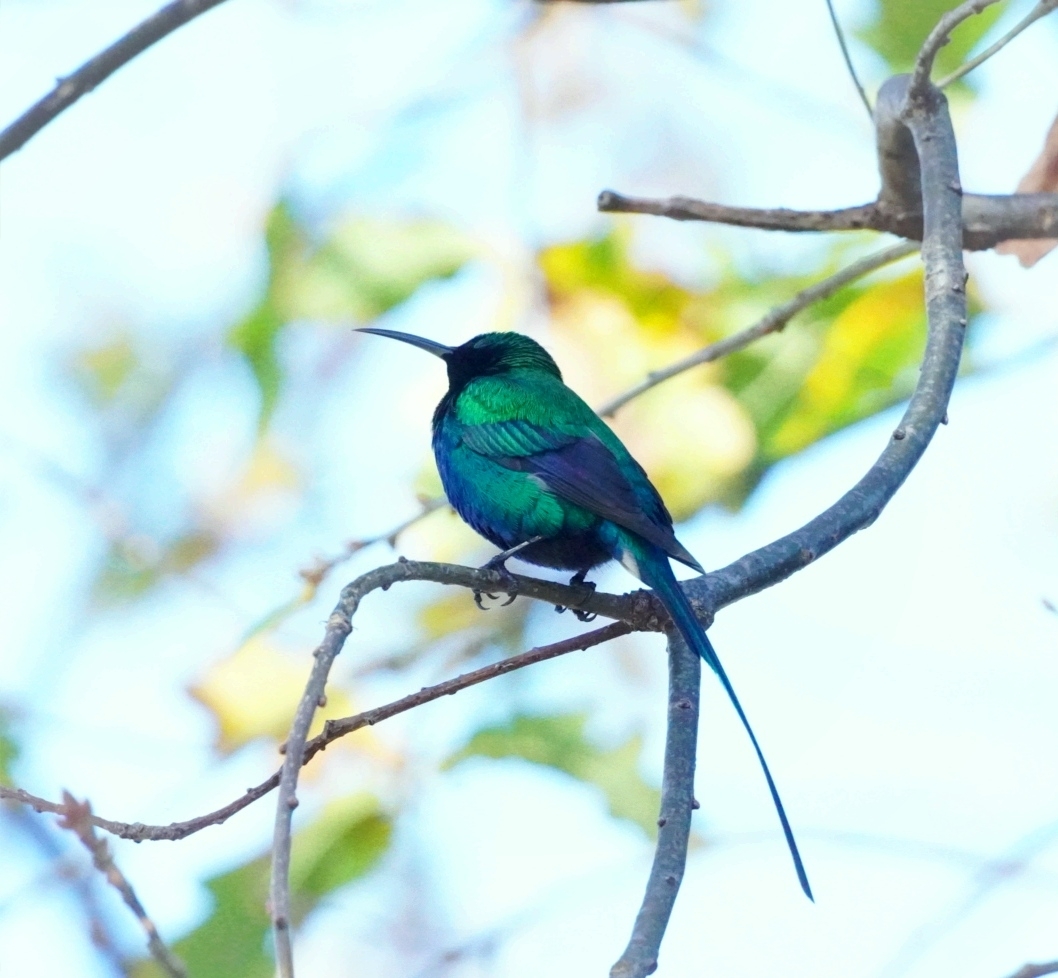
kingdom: Animalia
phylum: Chordata
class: Aves
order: Passeriformes
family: Nectariniidae
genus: Nectarinia
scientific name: Nectarinia famosa
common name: Malachite sunbird
